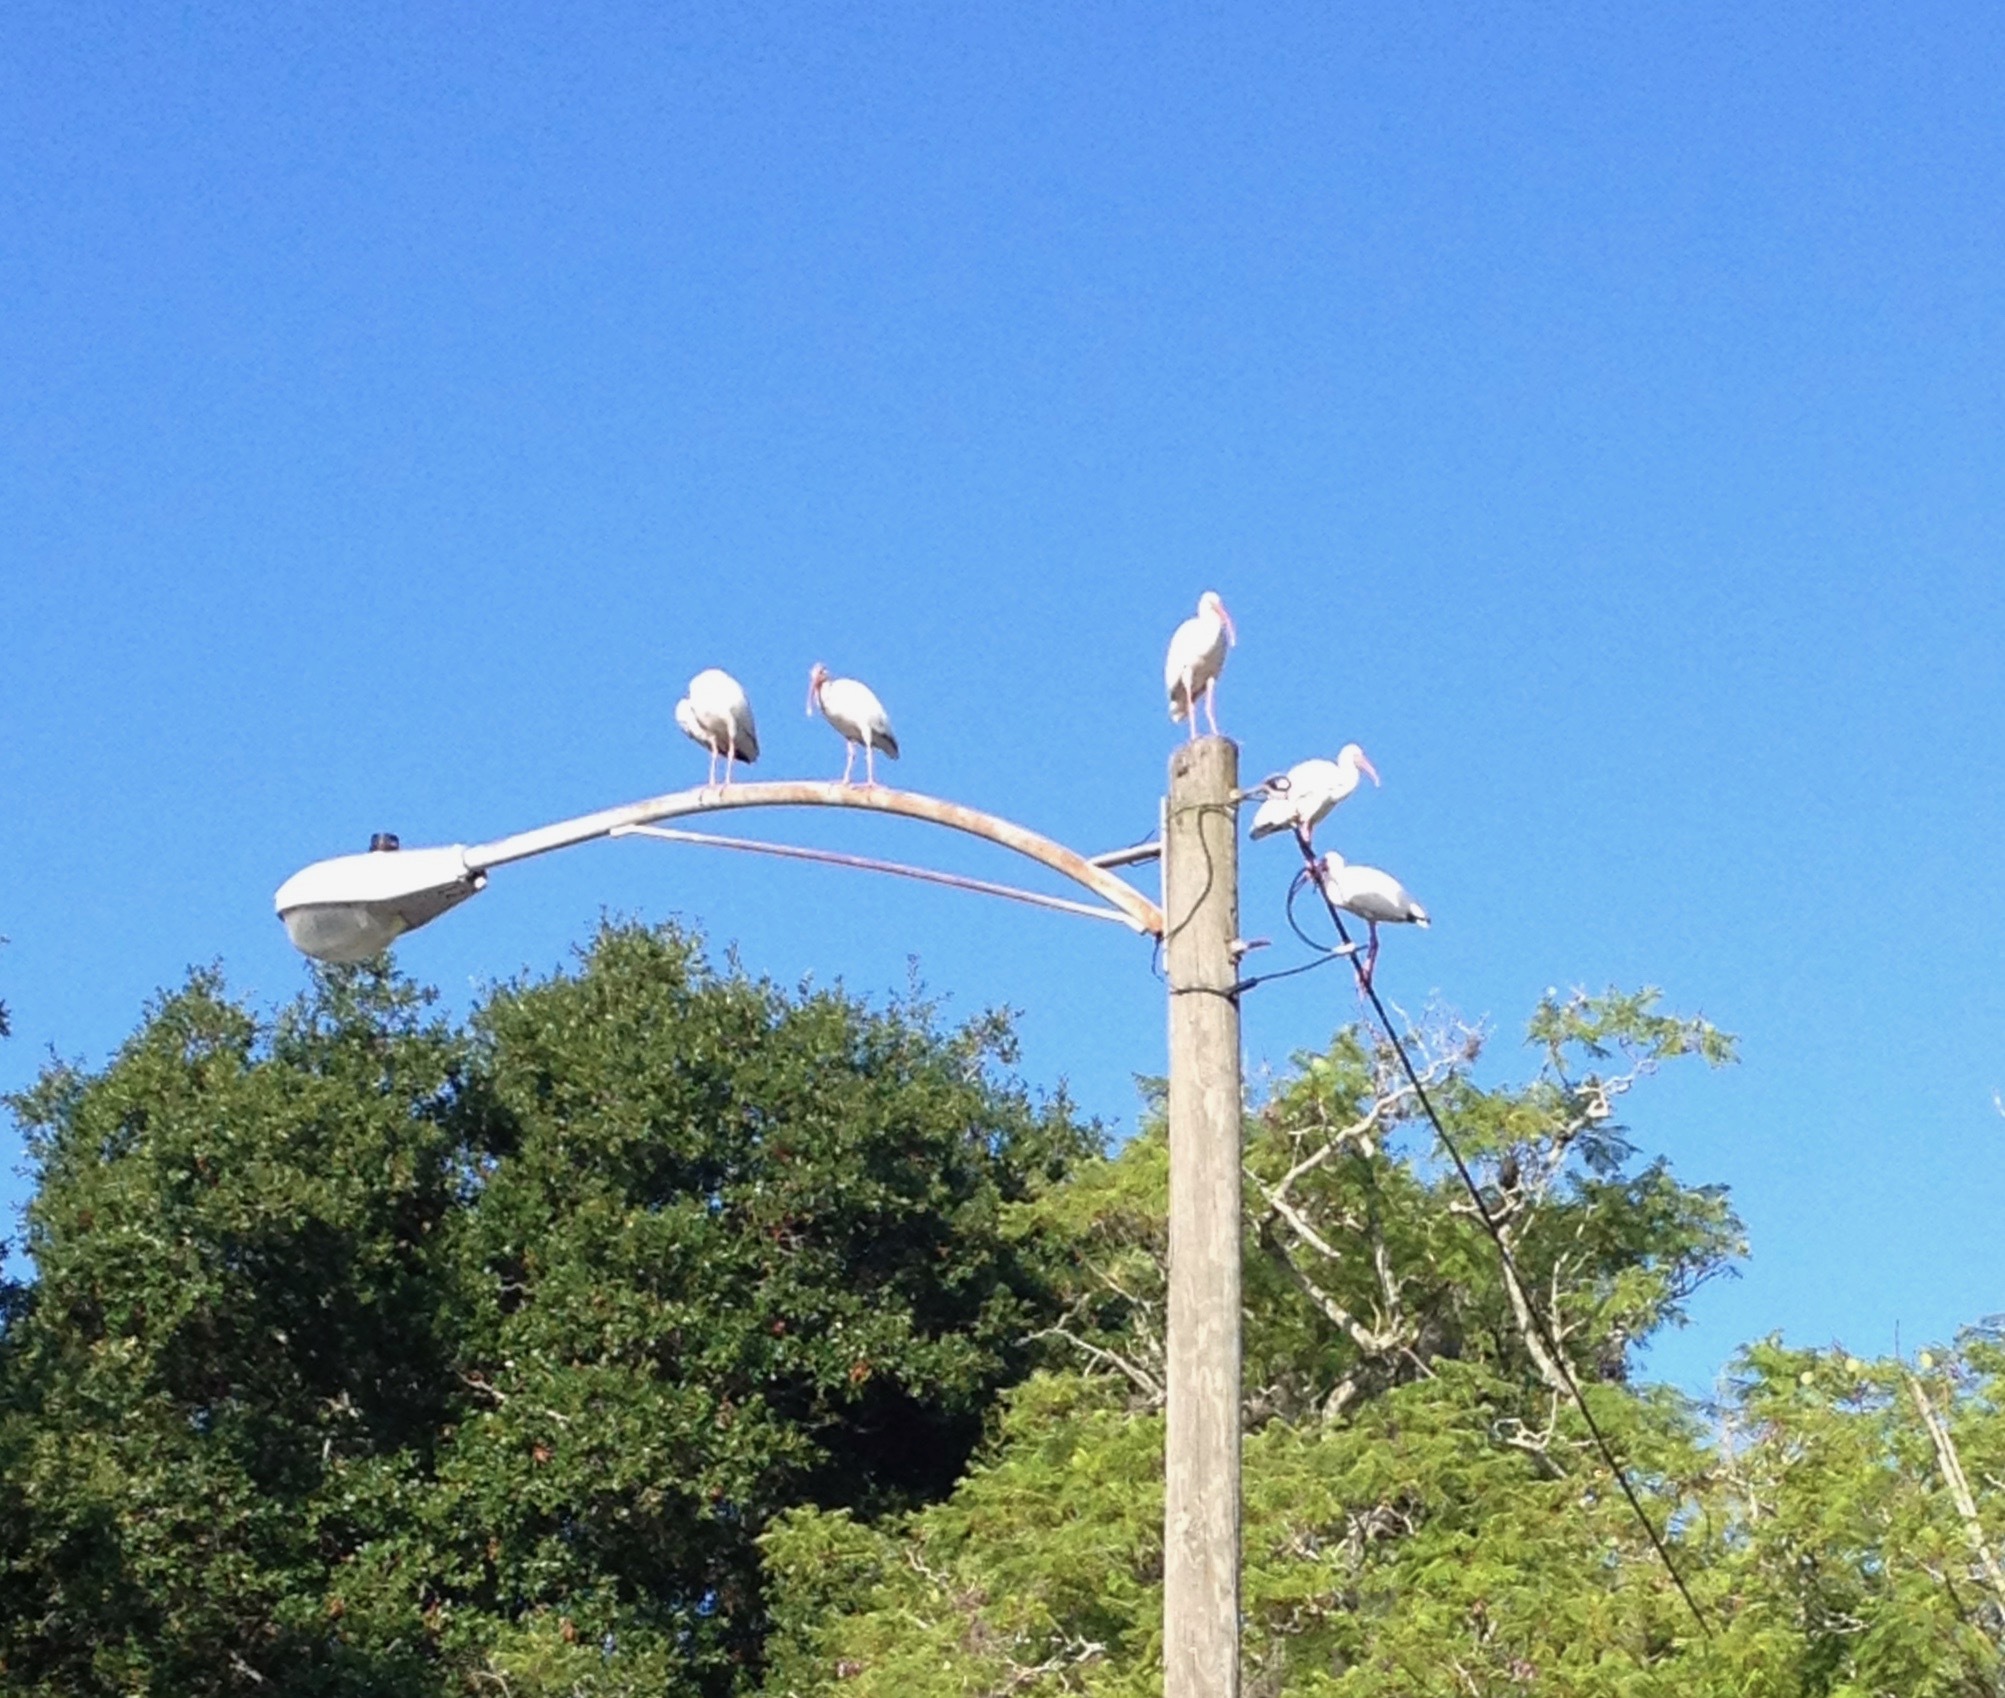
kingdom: Animalia
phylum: Chordata
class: Aves
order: Pelecaniformes
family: Threskiornithidae
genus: Eudocimus
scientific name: Eudocimus albus
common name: White ibis
